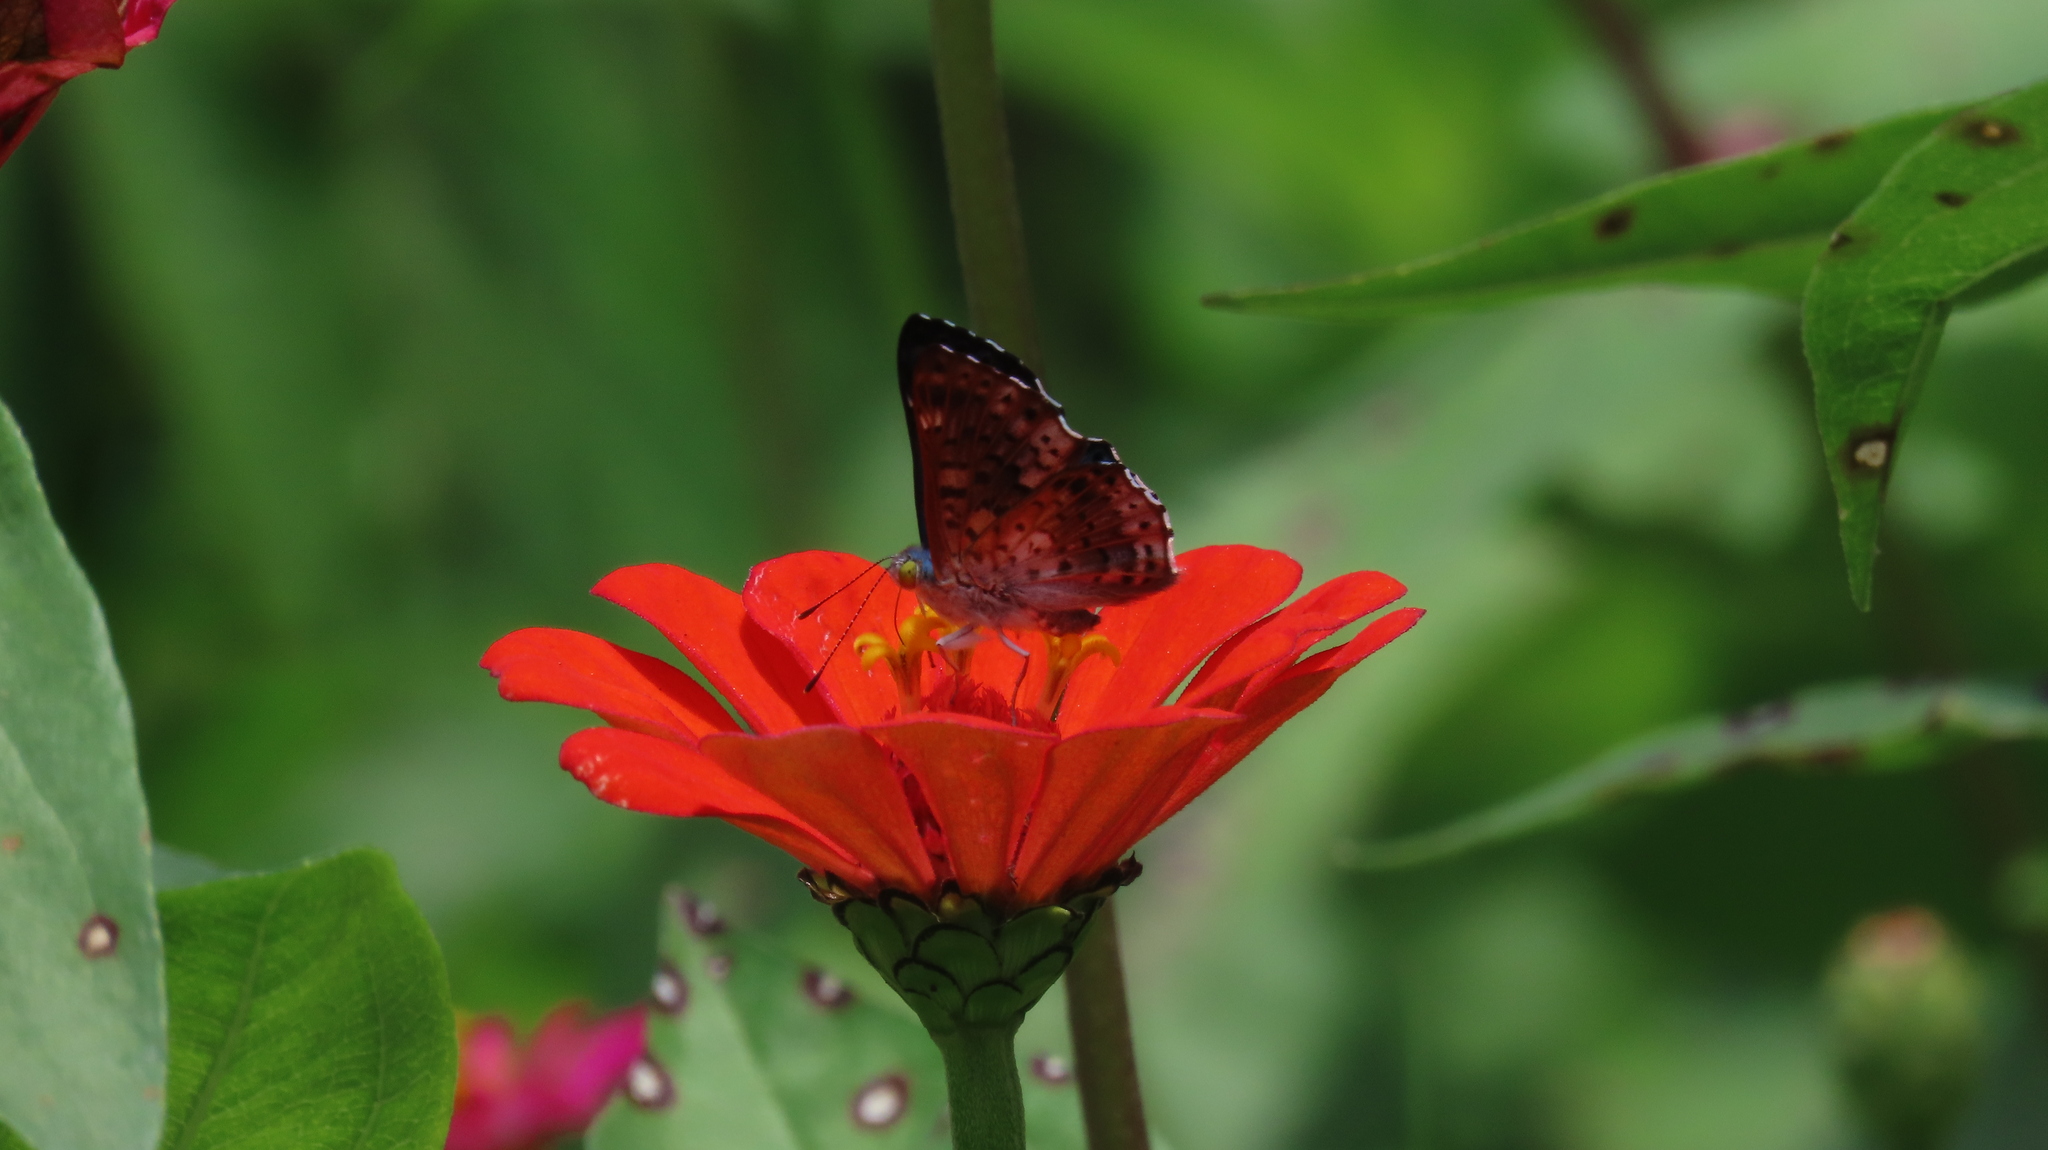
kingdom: Animalia
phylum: Arthropoda
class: Insecta
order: Lepidoptera
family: Riodinidae
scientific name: Riodinidae
